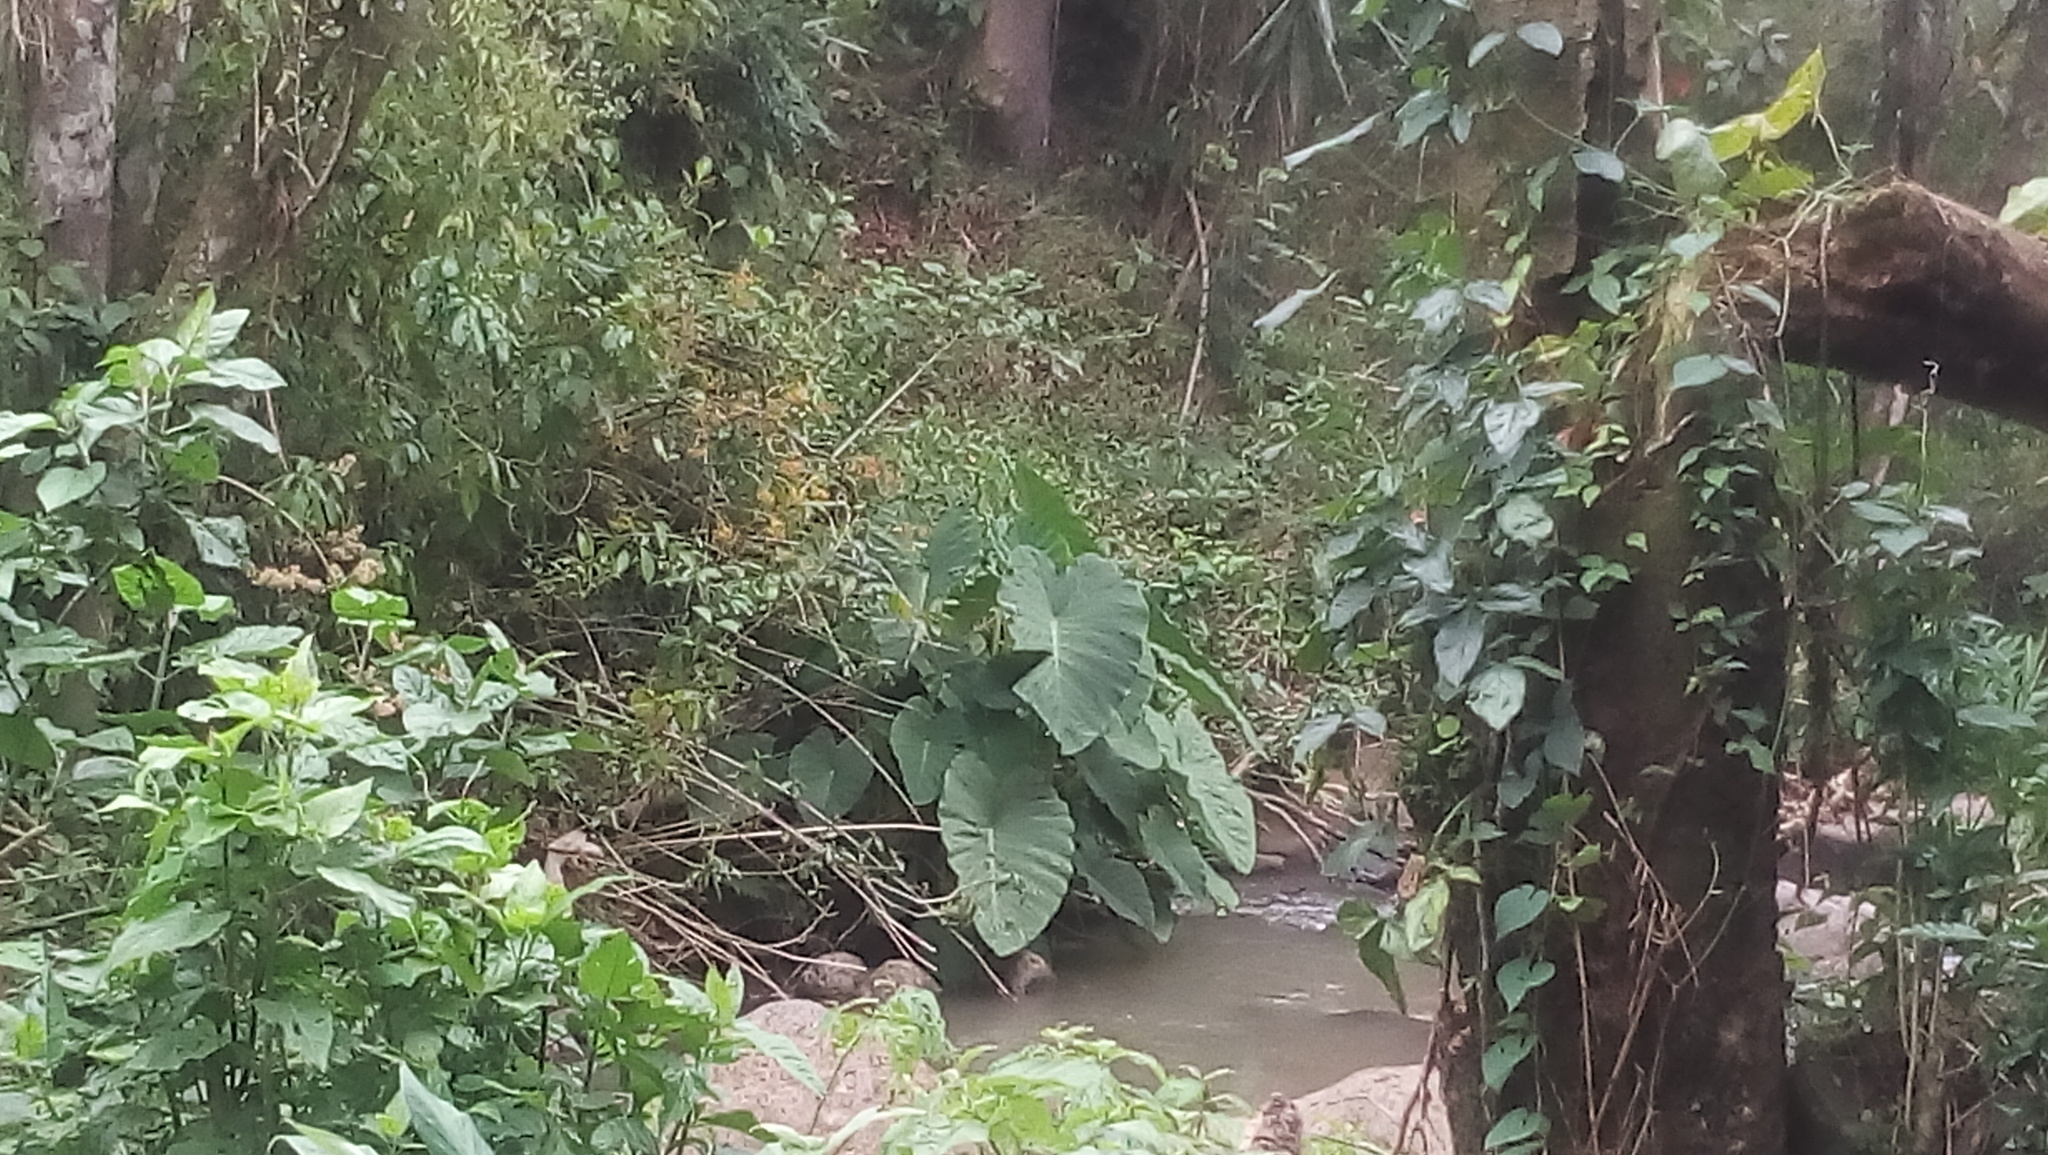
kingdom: Plantae
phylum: Tracheophyta
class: Liliopsida
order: Alismatales
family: Araceae
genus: Colocasia
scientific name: Colocasia esculenta
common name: Taro
